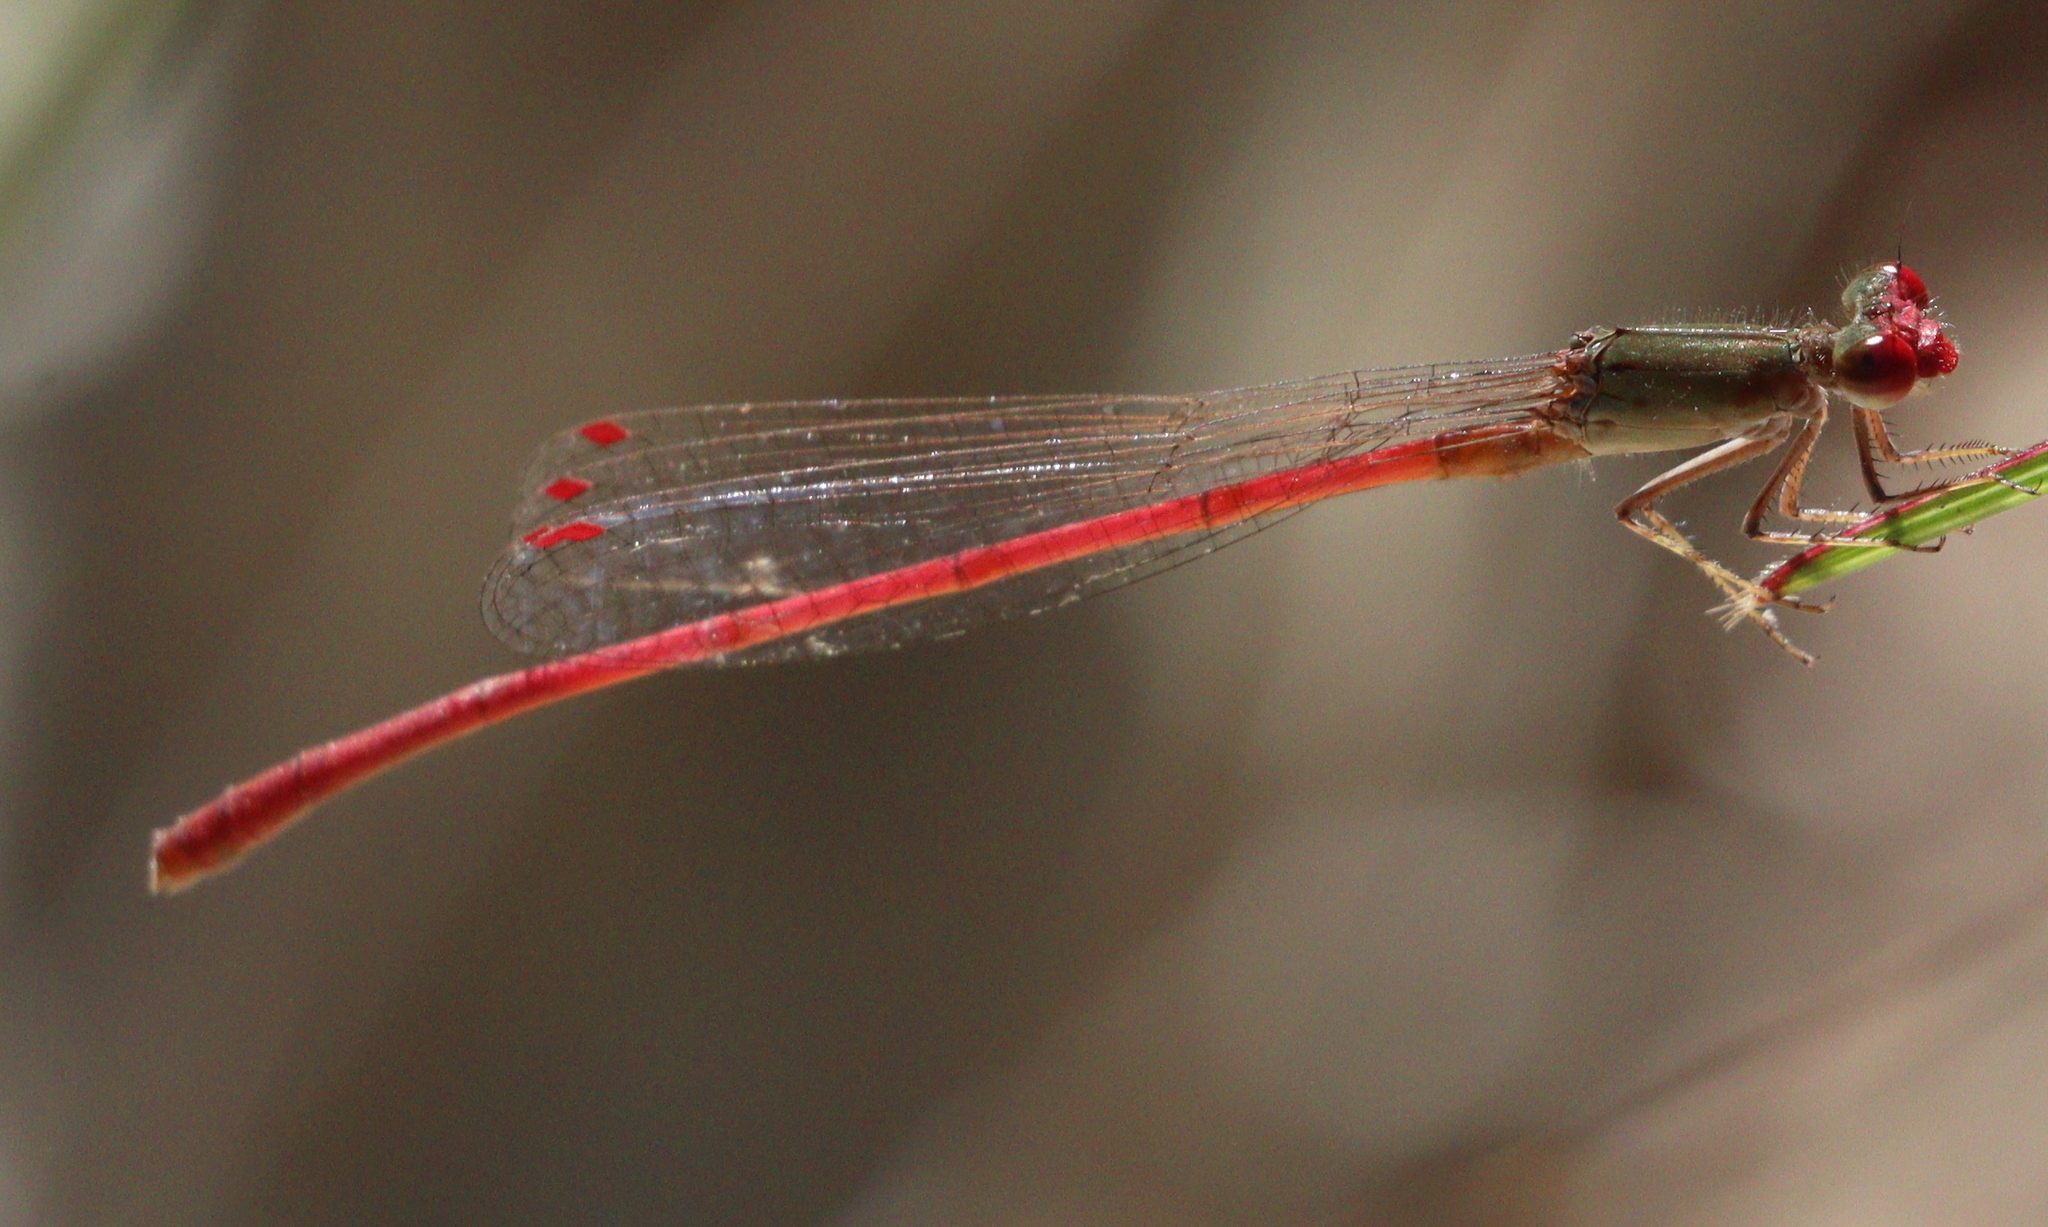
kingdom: Animalia
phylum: Arthropoda
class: Insecta
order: Odonata
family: Coenagrionidae
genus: Oxyagrion
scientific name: Oxyagrion impunctatum
